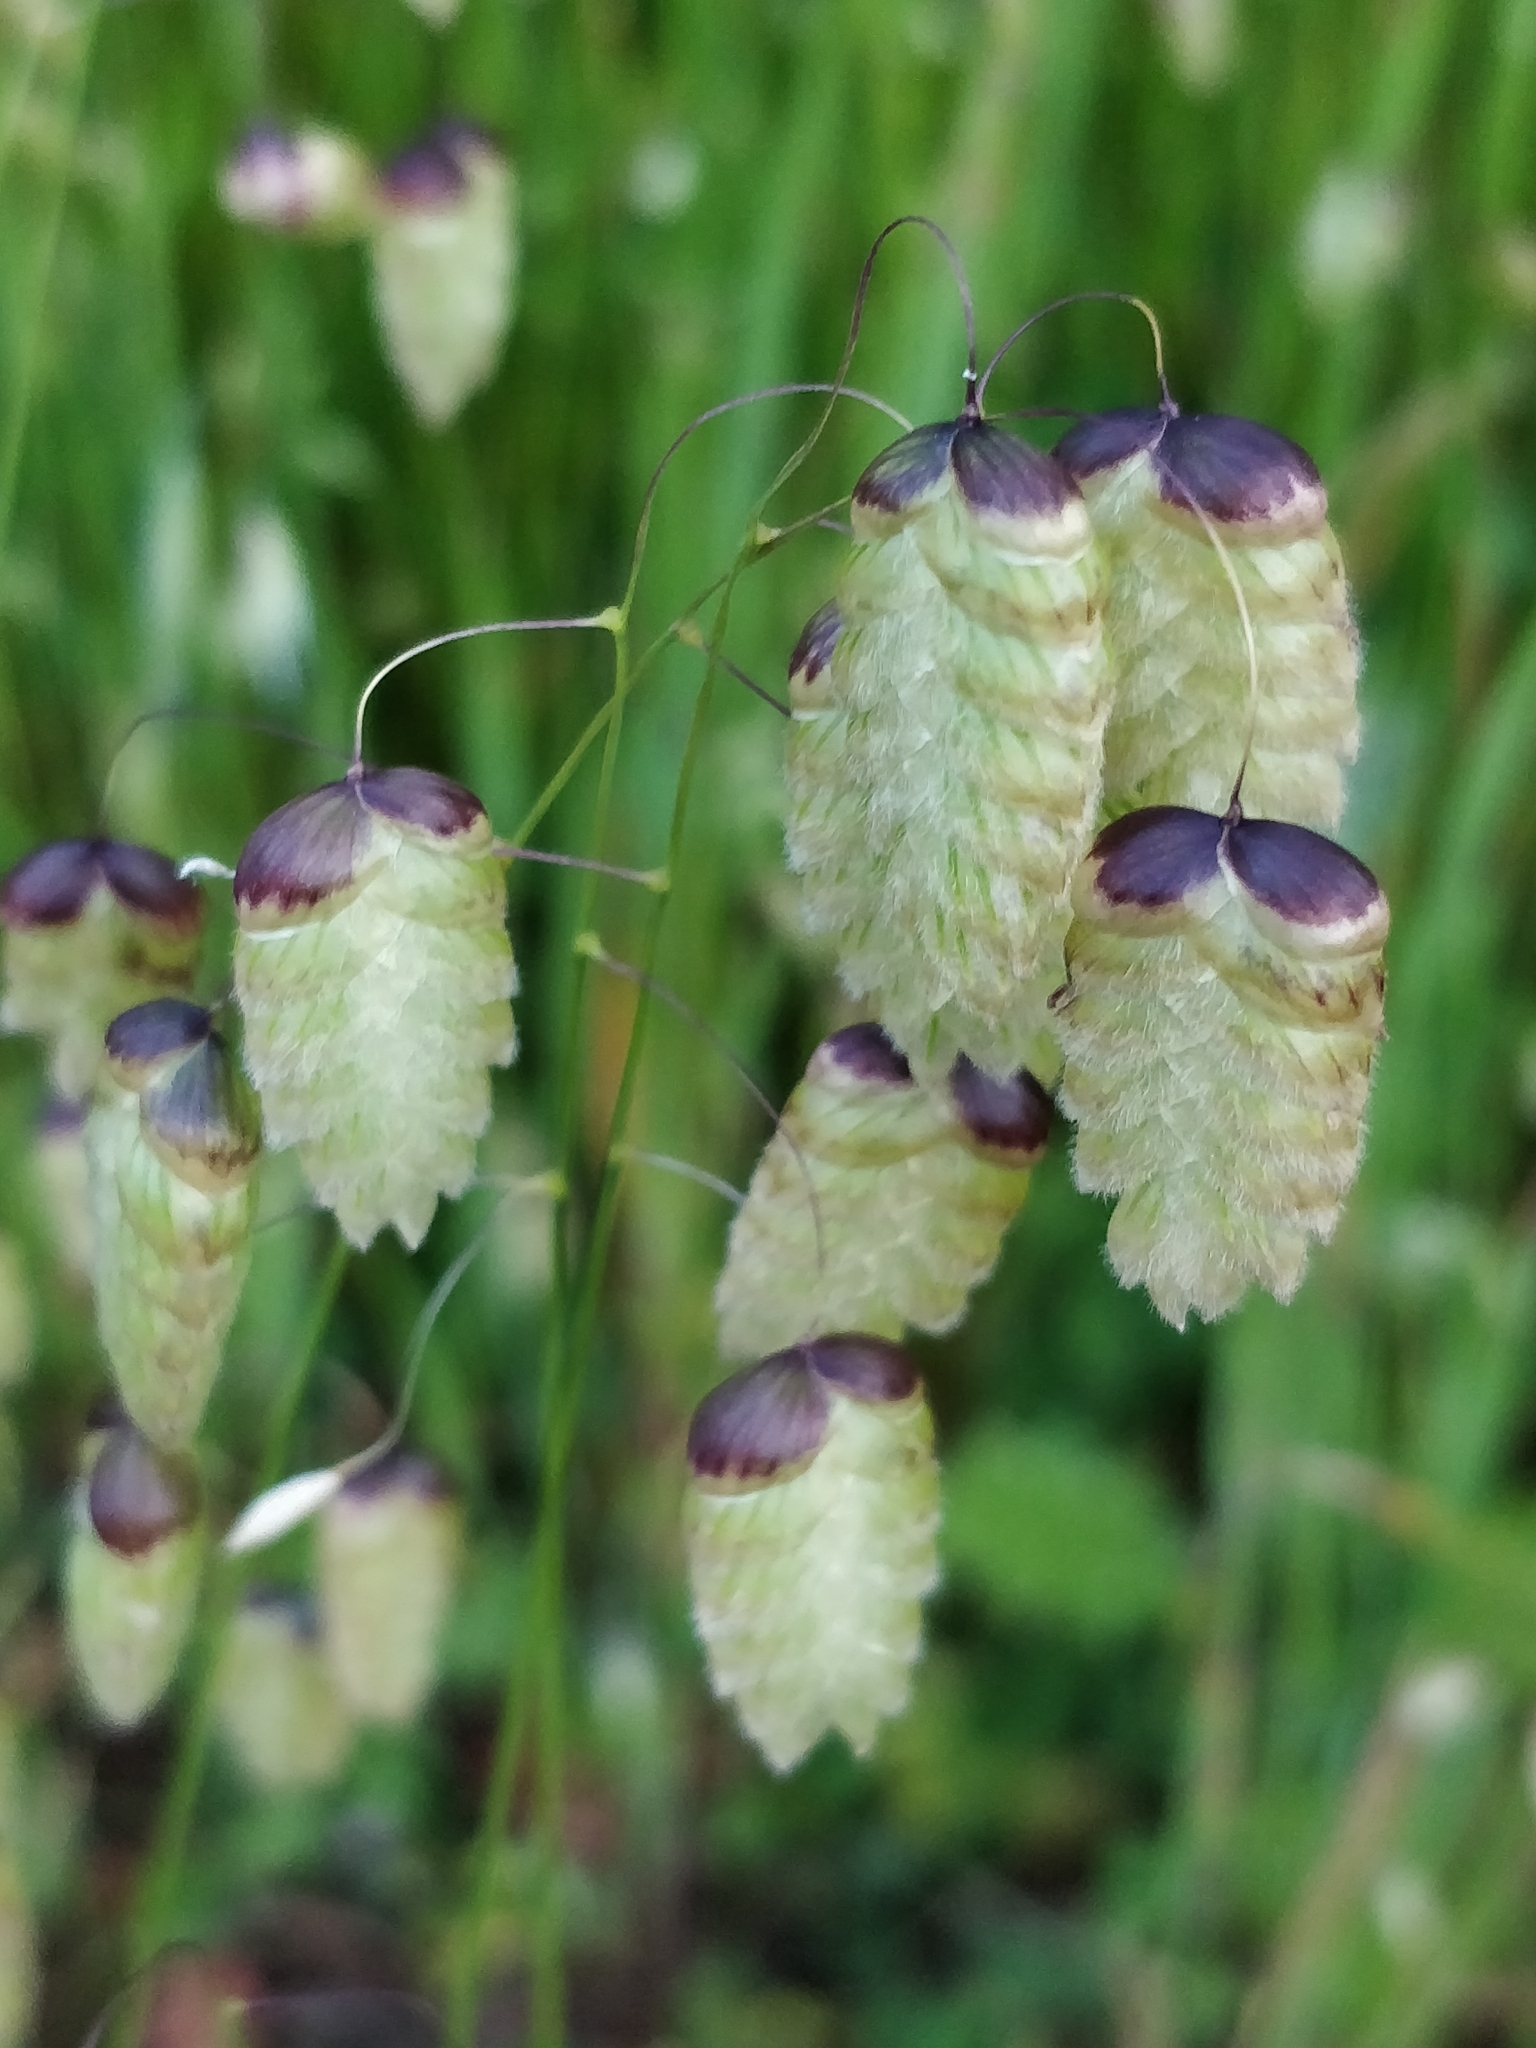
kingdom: Plantae
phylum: Tracheophyta
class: Liliopsida
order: Poales
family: Poaceae
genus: Briza
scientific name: Briza maxima
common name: Big quakinggrass
